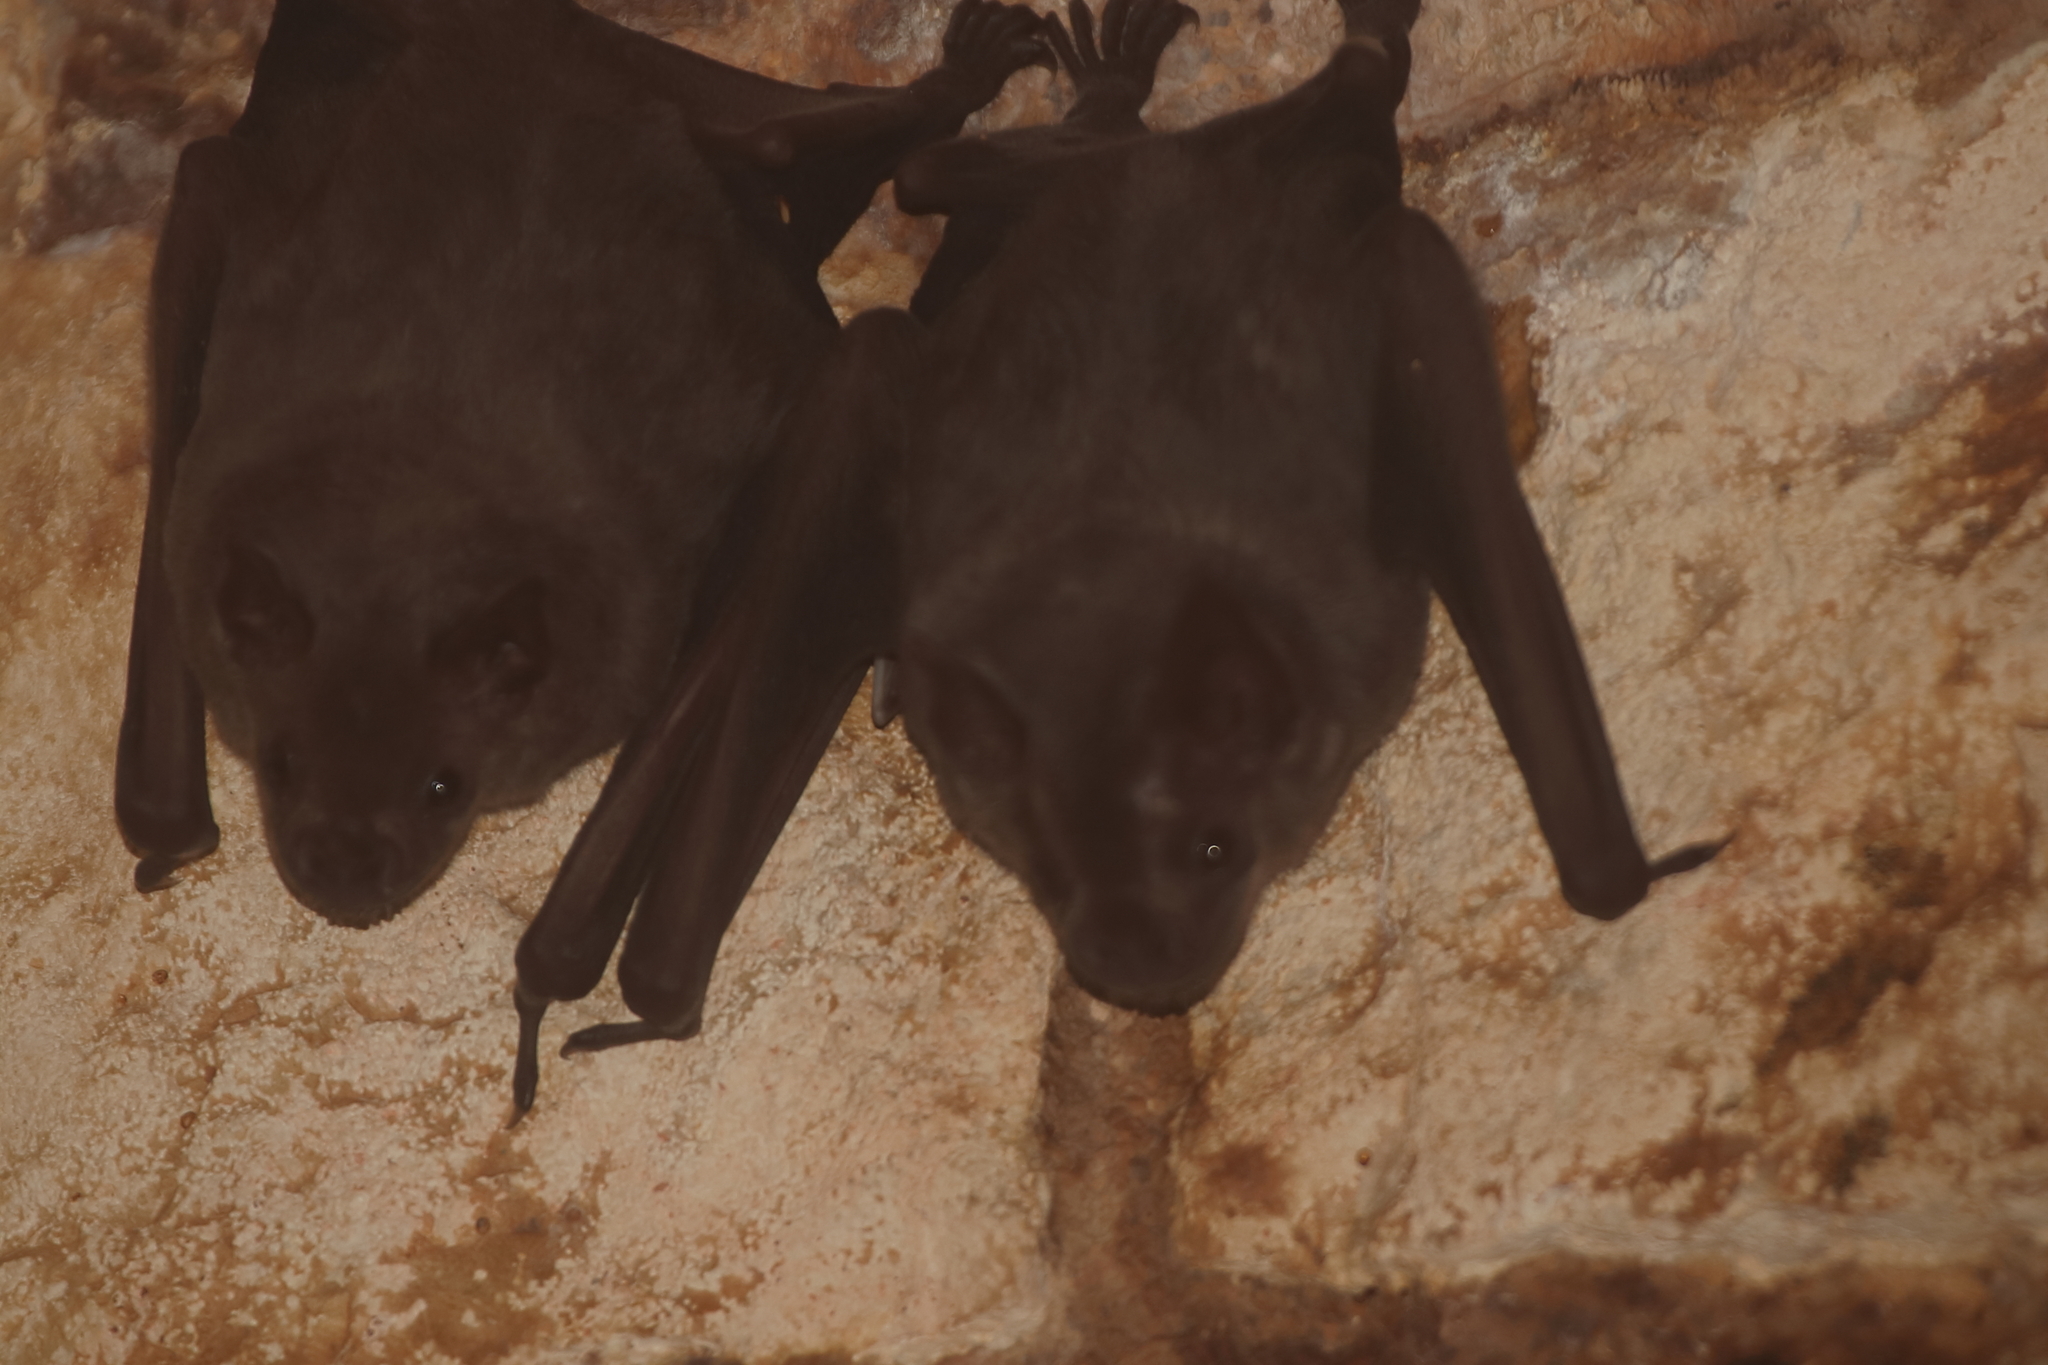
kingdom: Animalia
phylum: Chordata
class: Mammalia
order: Chiroptera
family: Phyllostomidae
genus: Artibeus
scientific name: Artibeus jamaicensis
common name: Jamaican fruit-eating bat
